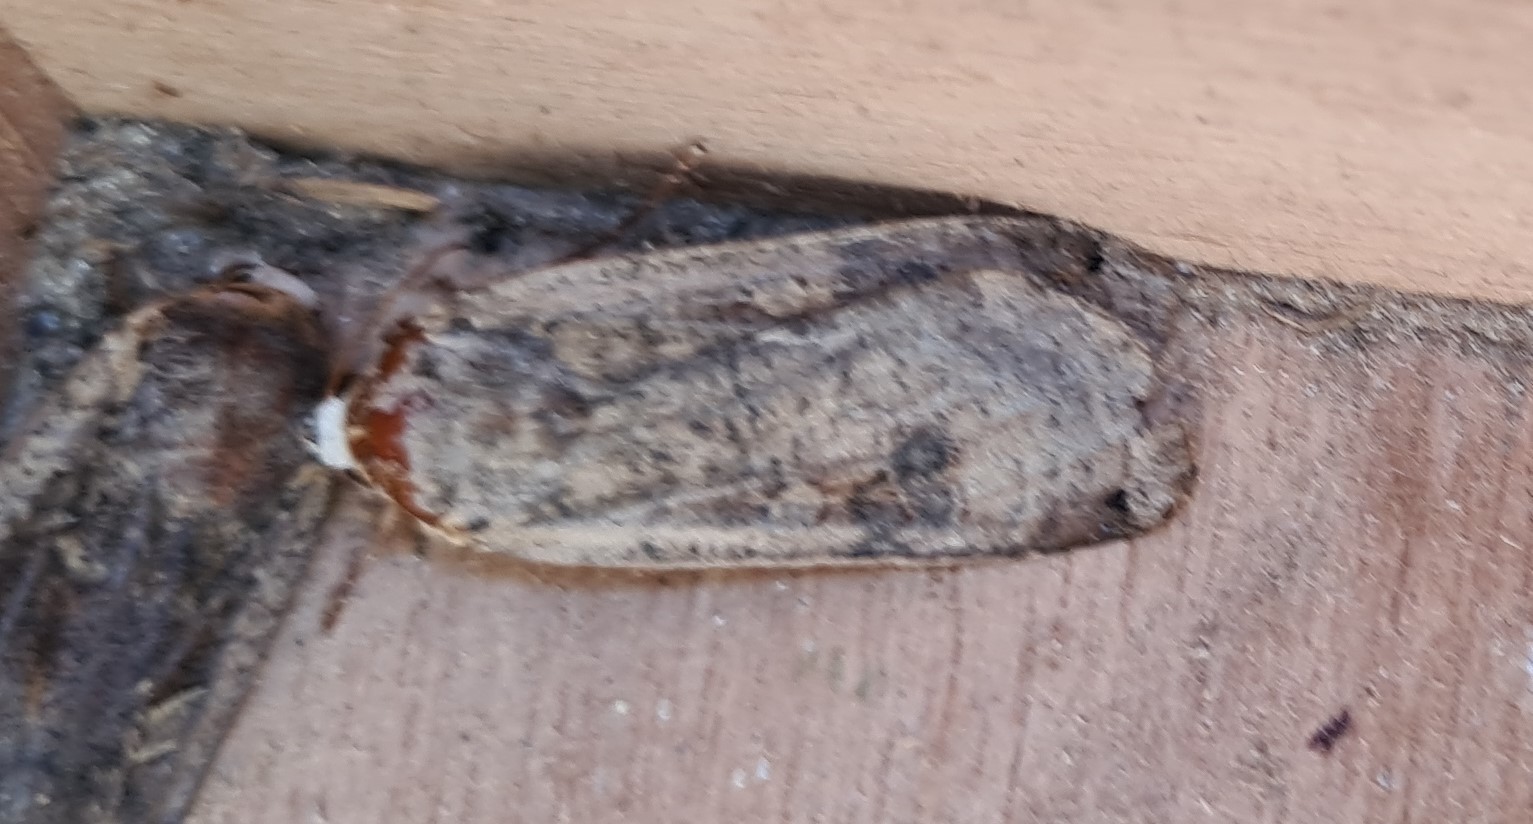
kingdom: Animalia
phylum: Arthropoda
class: Insecta
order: Lepidoptera
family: Noctuidae
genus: Noctua
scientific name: Noctua pronuba
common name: Large yellow underwing
